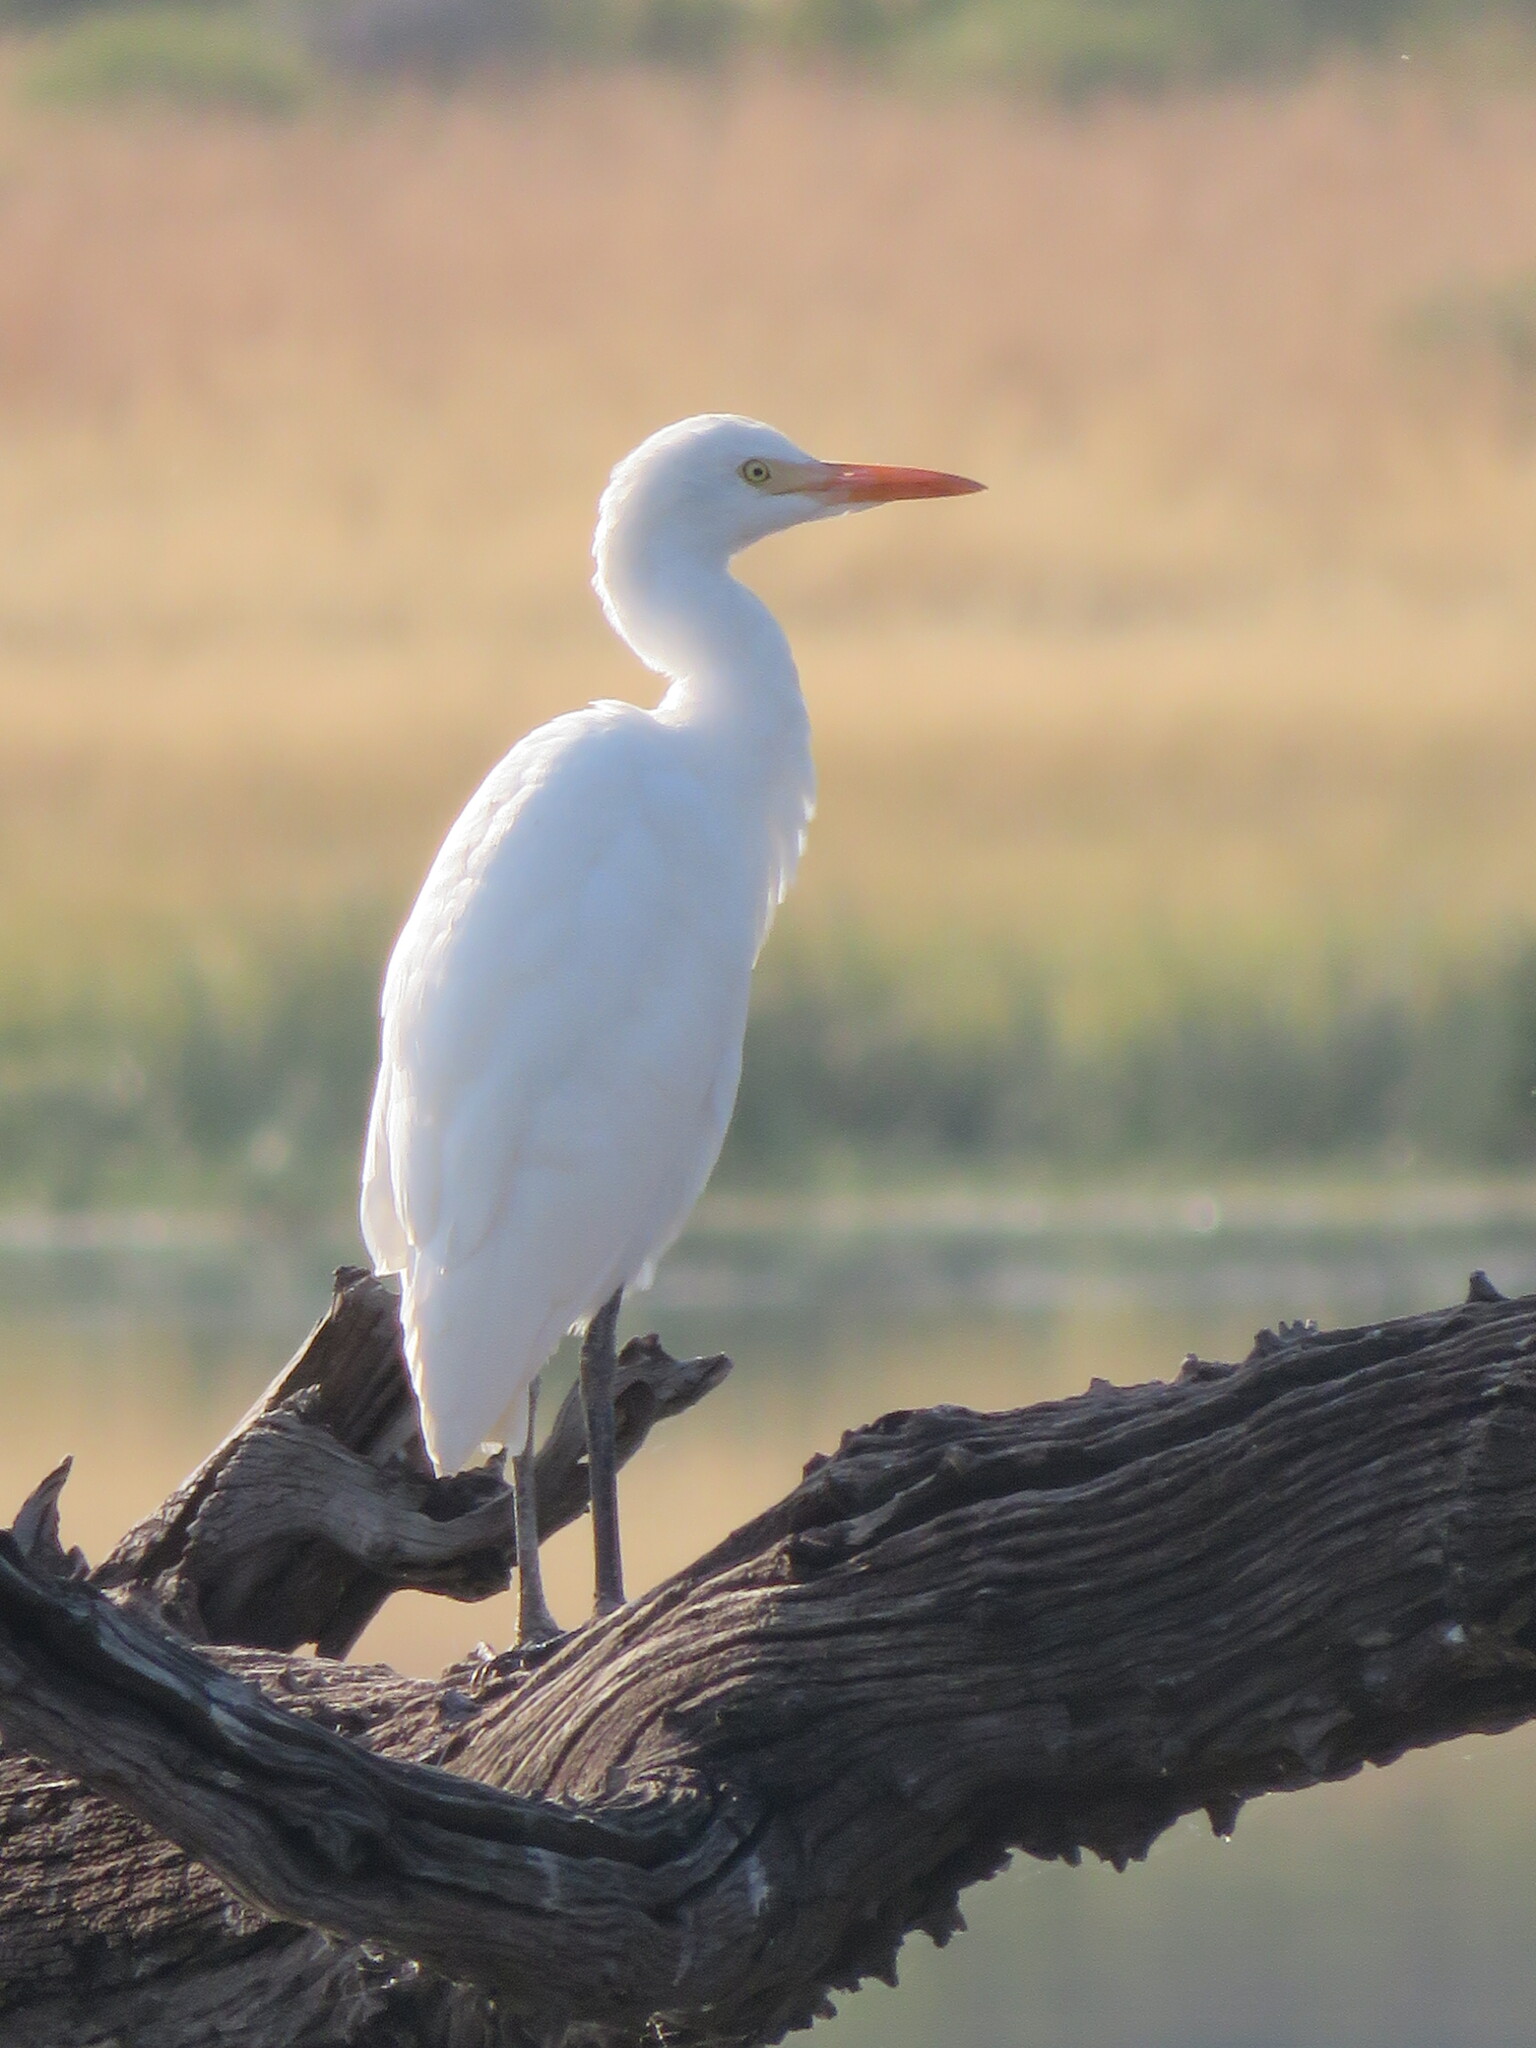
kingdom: Animalia
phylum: Chordata
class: Aves
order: Pelecaniformes
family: Ardeidae
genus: Bubulcus
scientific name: Bubulcus ibis
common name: Cattle egret
